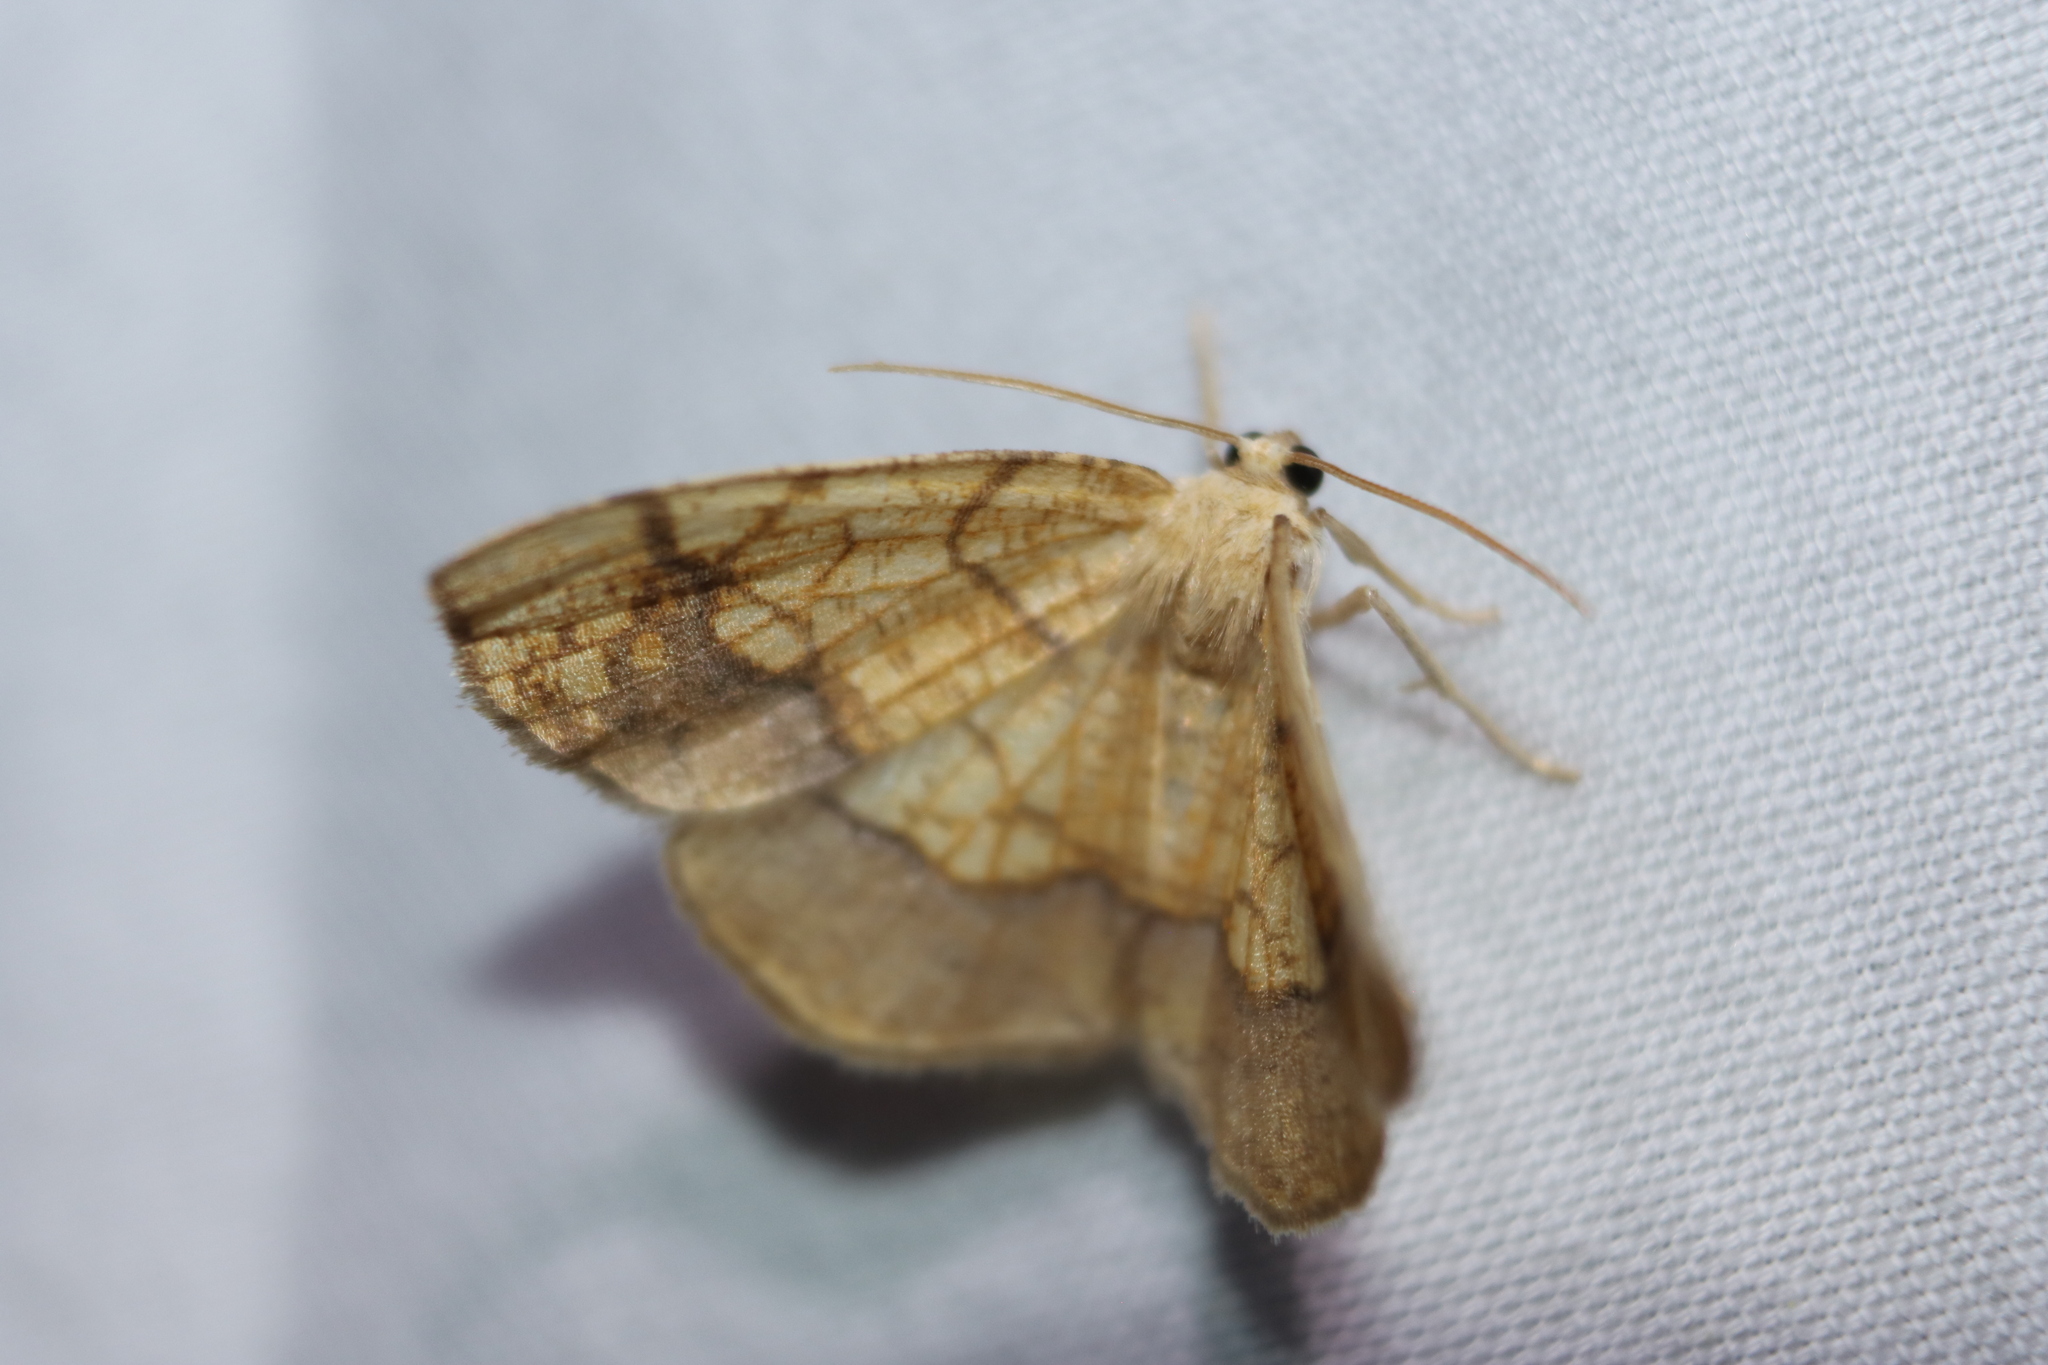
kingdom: Animalia
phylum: Arthropoda
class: Insecta
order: Lepidoptera
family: Geometridae
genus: Nematocampa
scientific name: Nematocampa resistaria
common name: Horned spanworm moth
